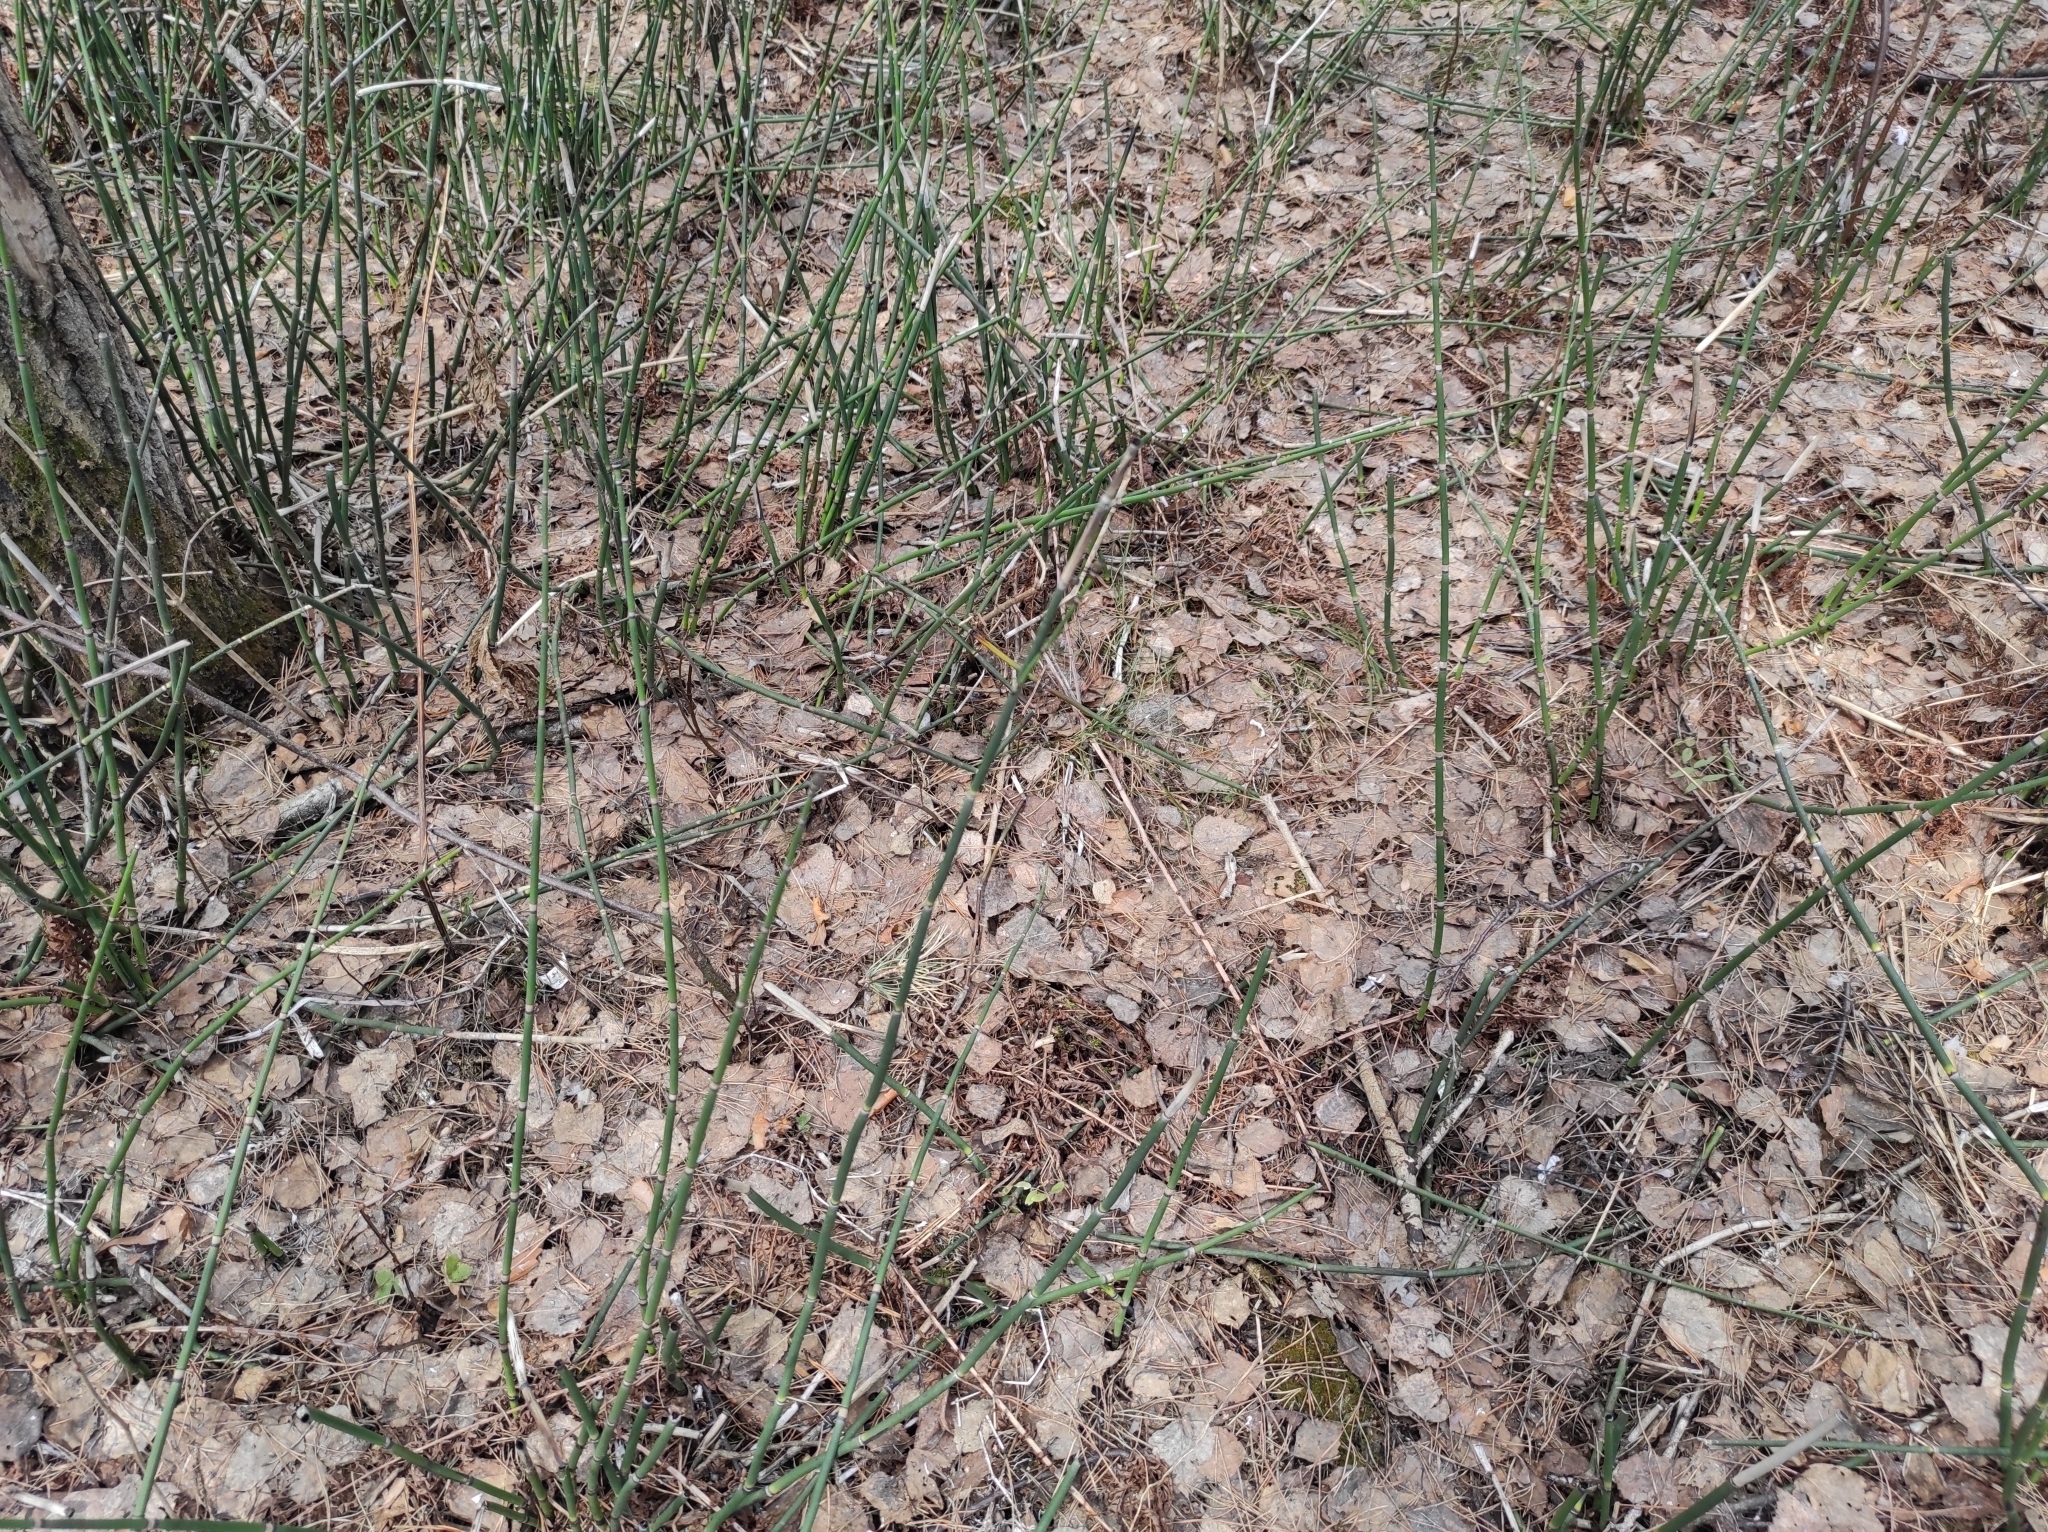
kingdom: Plantae
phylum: Tracheophyta
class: Polypodiopsida
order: Equisetales
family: Equisetaceae
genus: Equisetum
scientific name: Equisetum hyemale
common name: Rough horsetail
